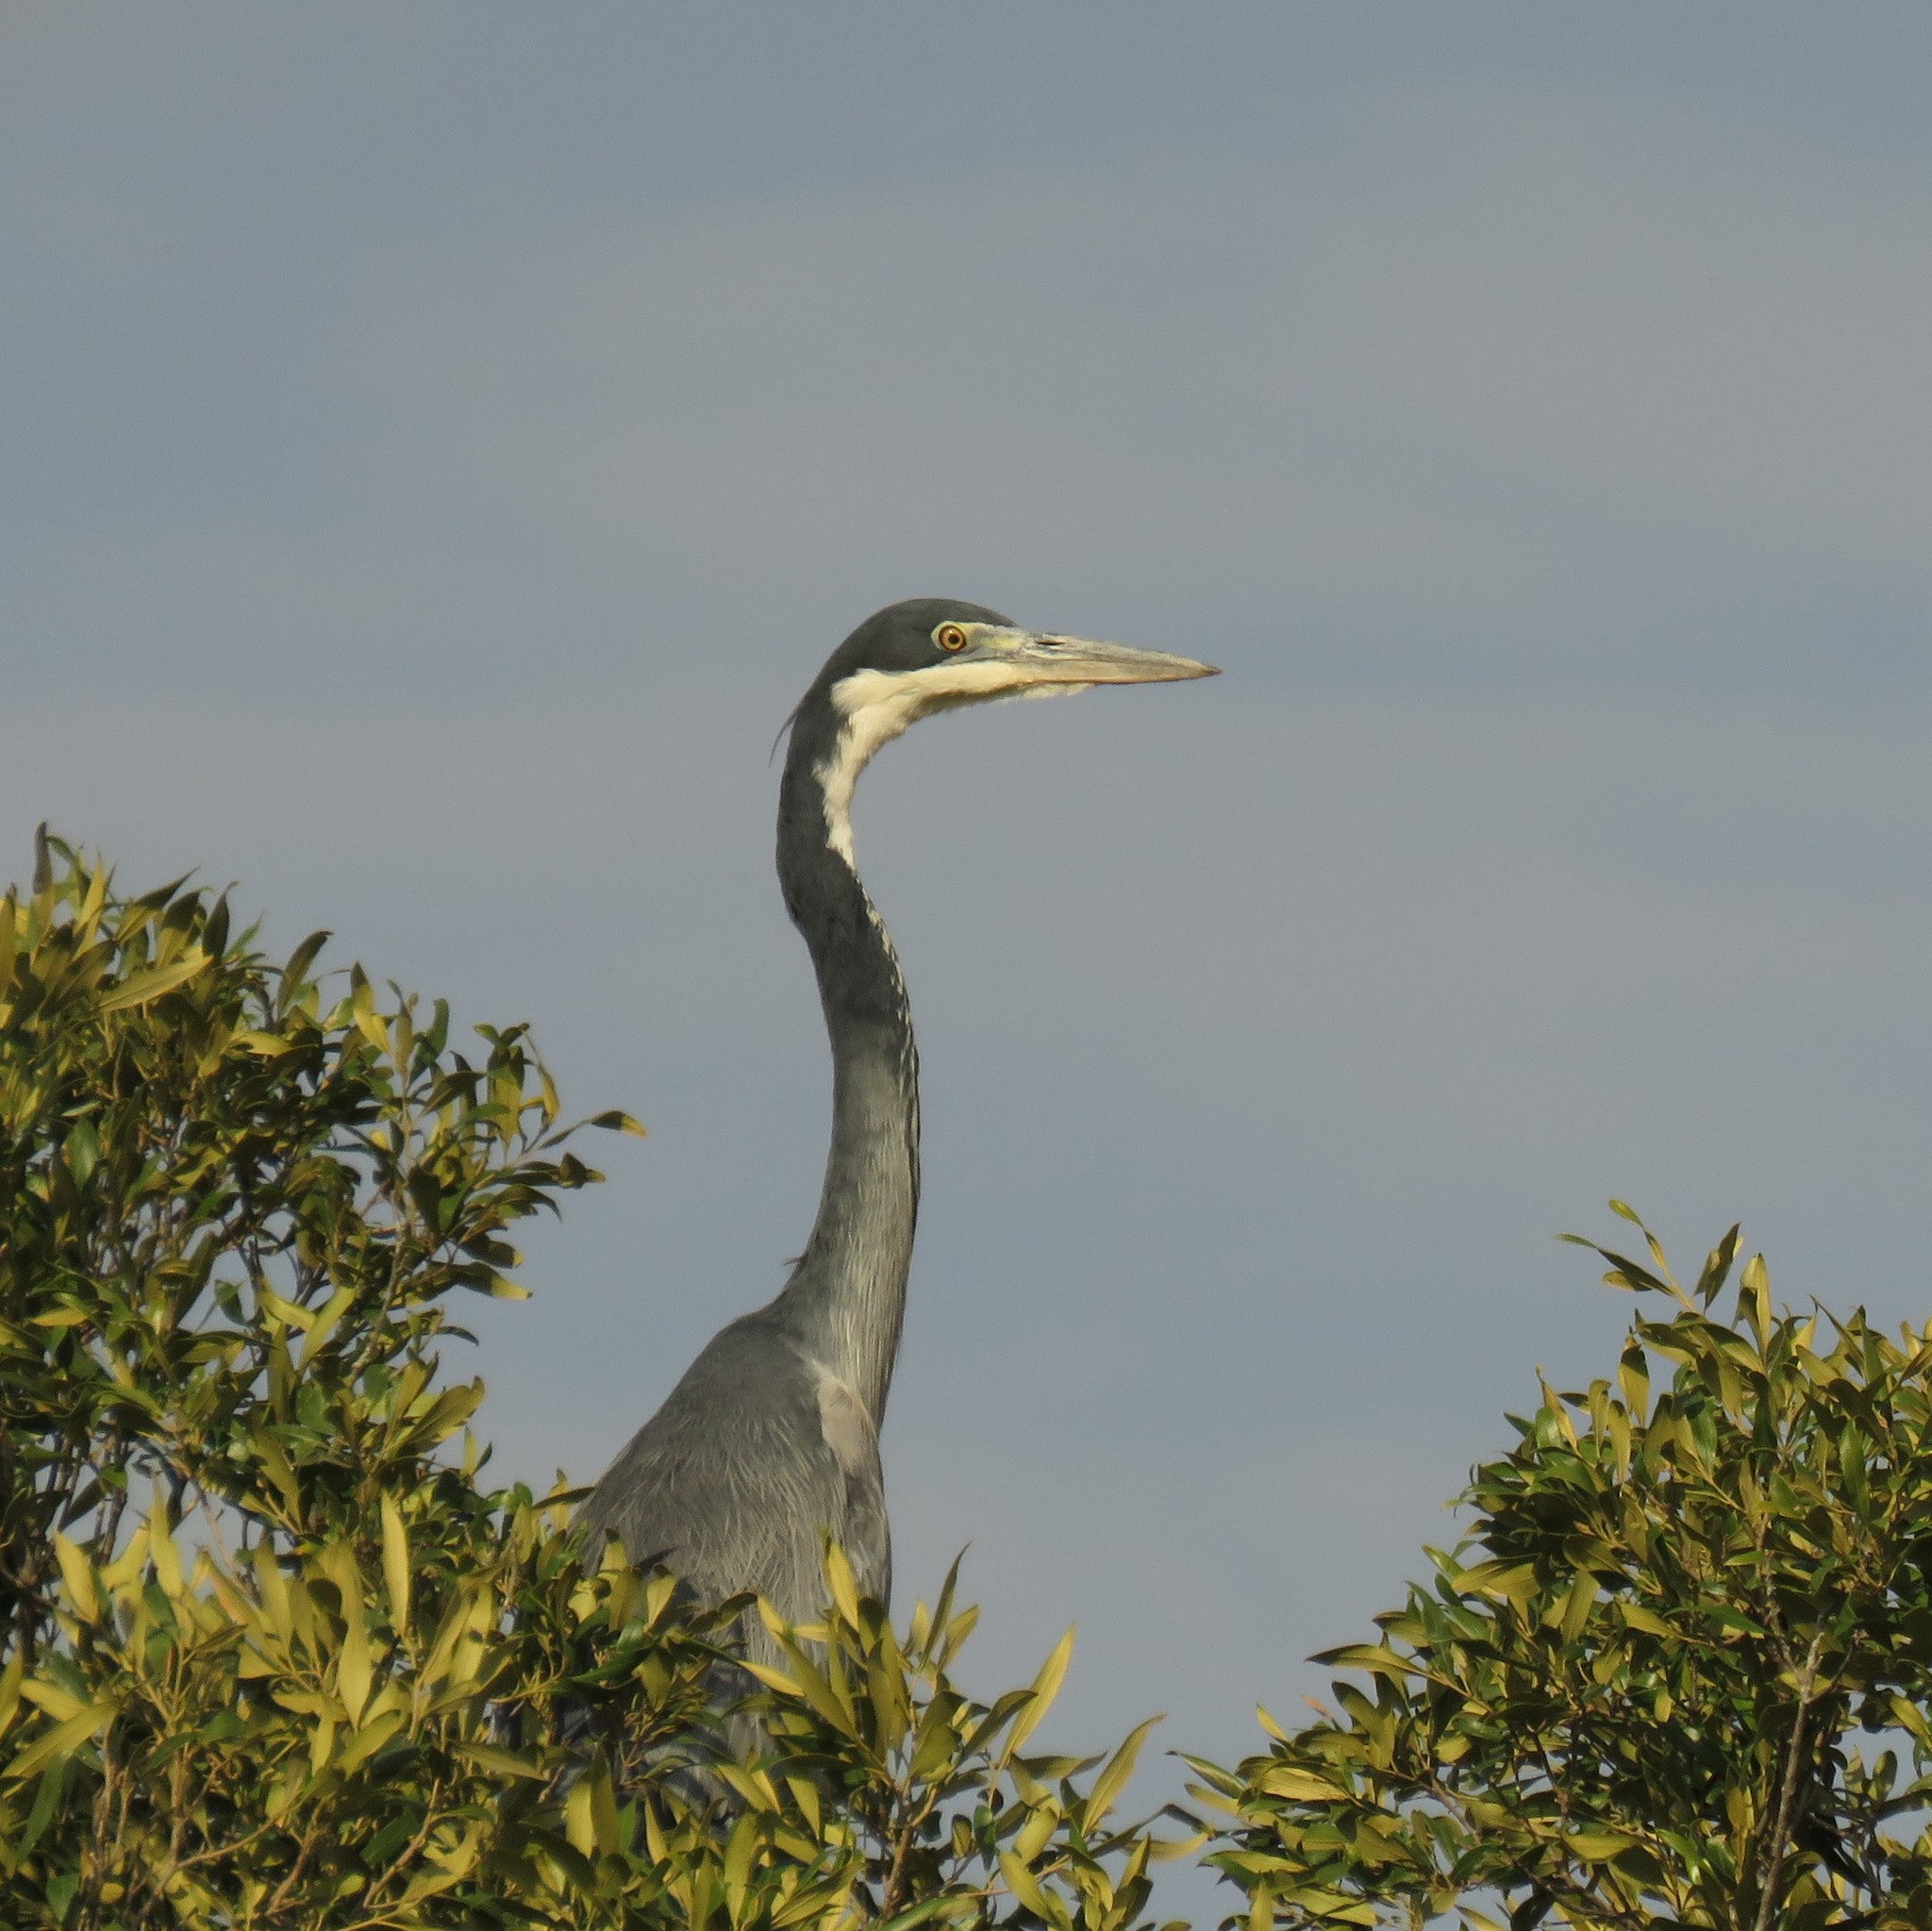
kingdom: Animalia
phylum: Chordata
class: Aves
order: Pelecaniformes
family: Ardeidae
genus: Ardea
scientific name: Ardea melanocephala
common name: Black-headed heron
